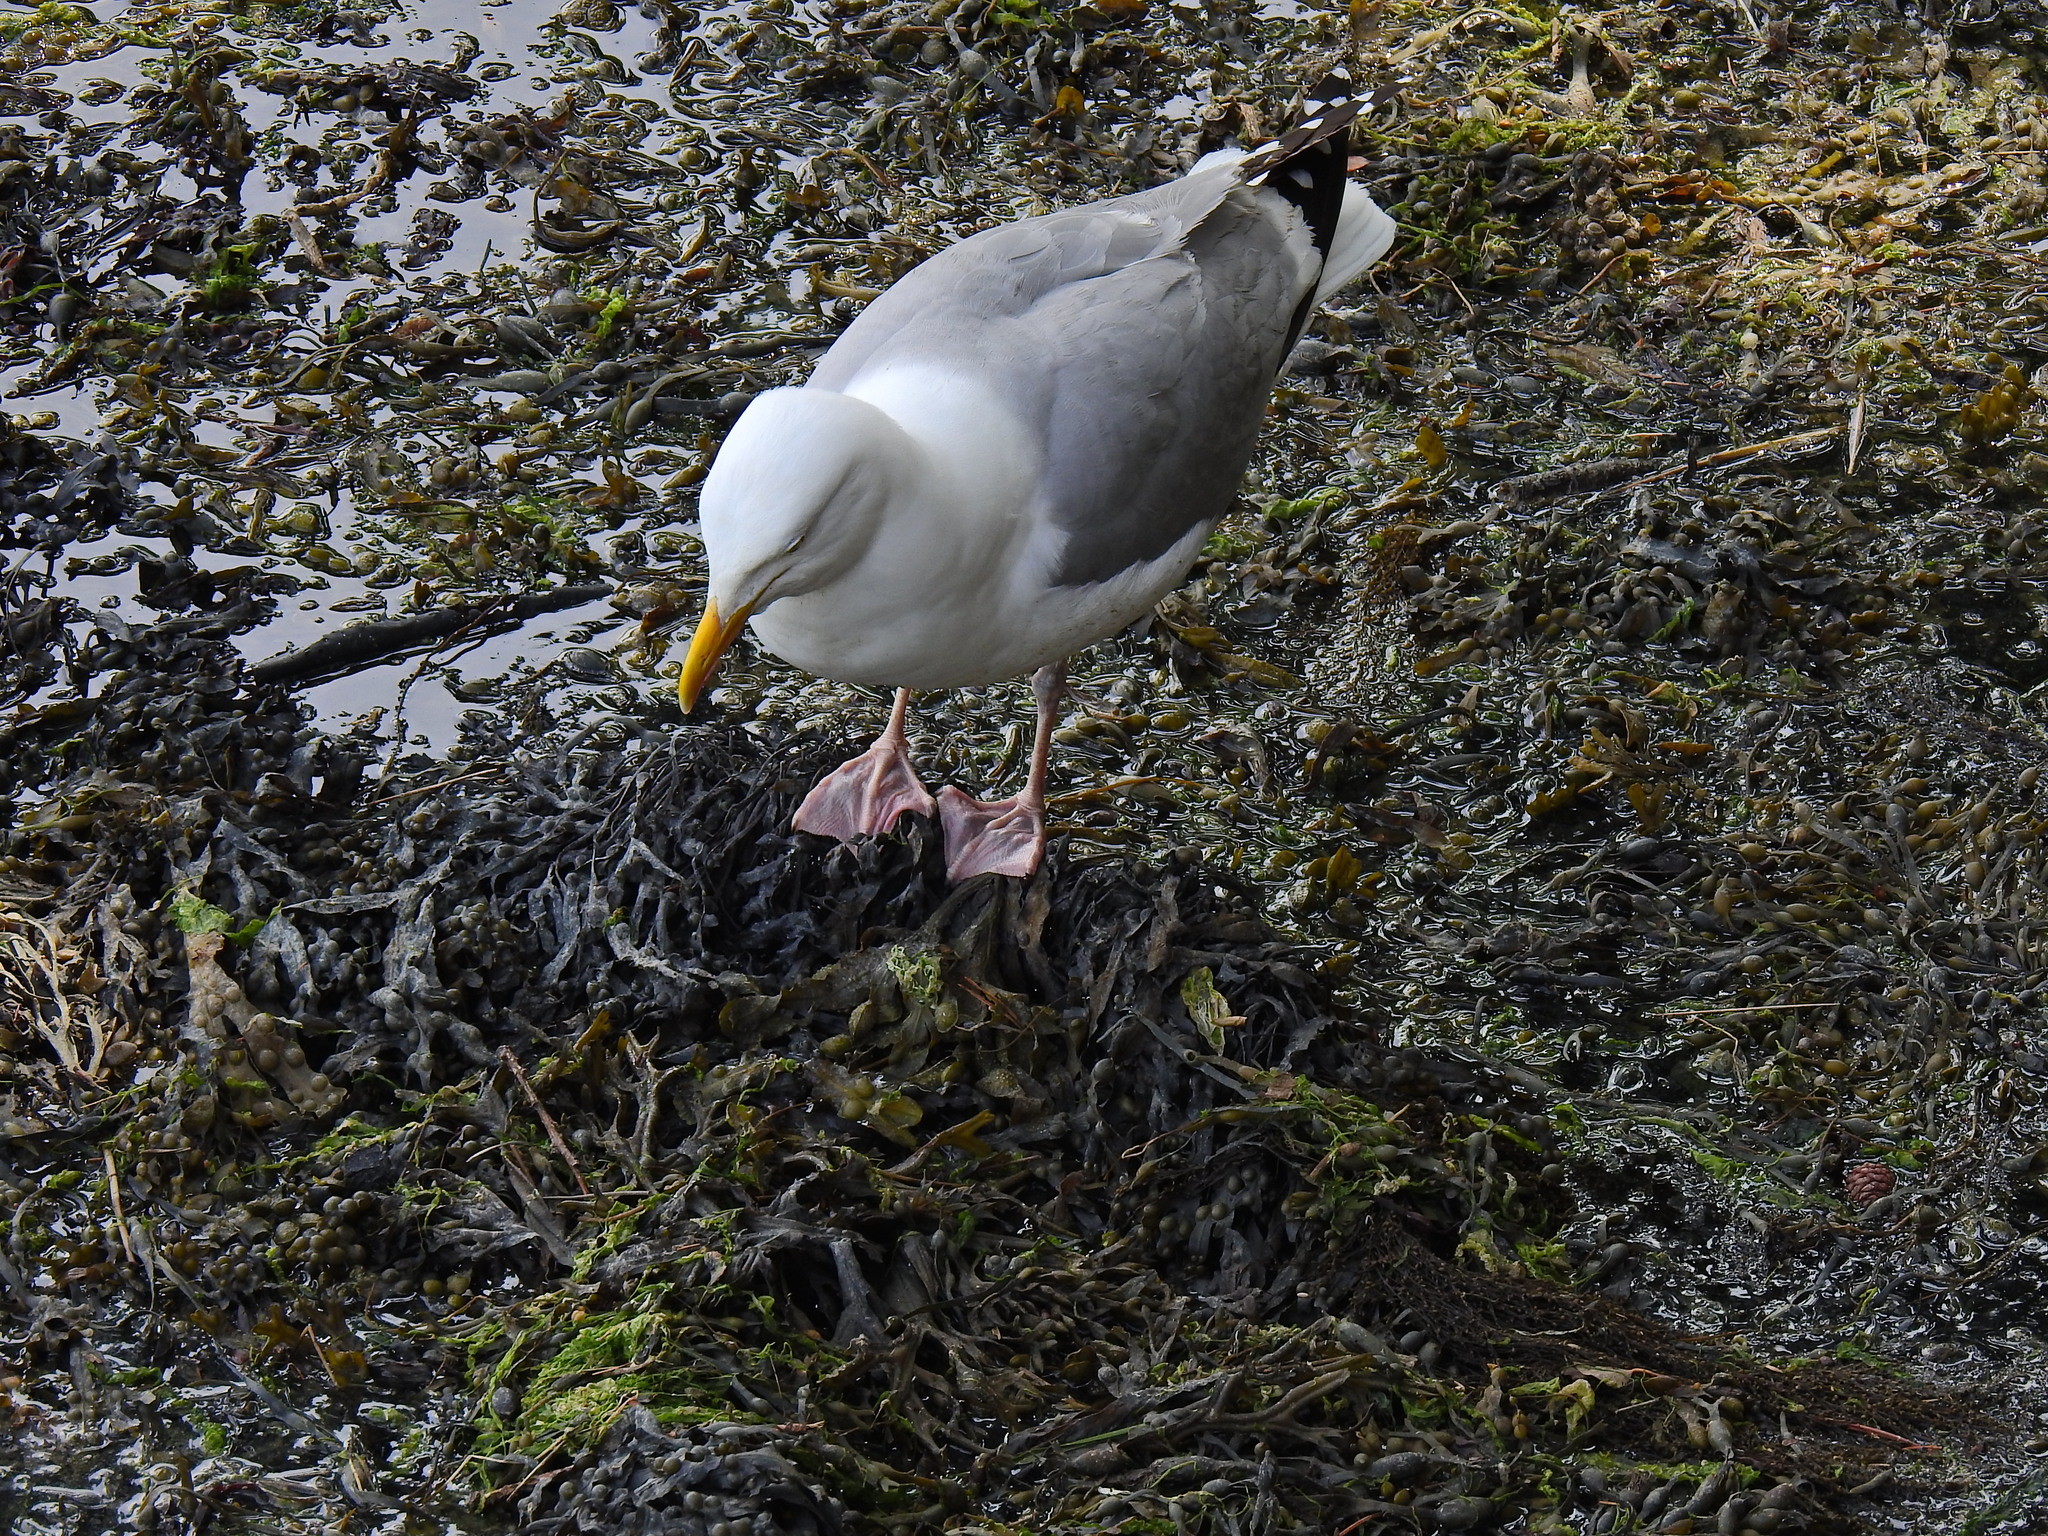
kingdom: Animalia
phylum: Chordata
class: Aves
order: Charadriiformes
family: Laridae
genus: Larus
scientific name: Larus argentatus
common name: Herring gull
